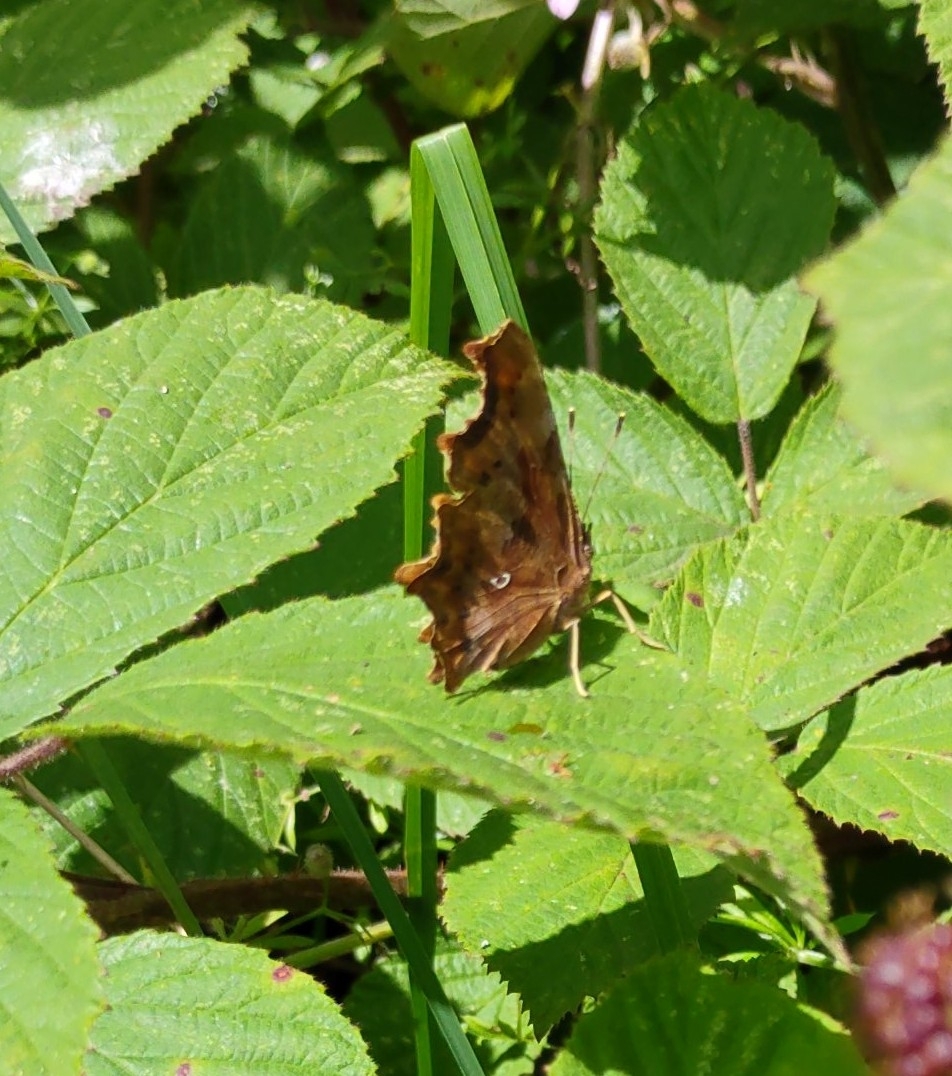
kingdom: Animalia
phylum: Arthropoda
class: Insecta
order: Lepidoptera
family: Nymphalidae
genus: Polygonia
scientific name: Polygonia c-album
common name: Comma
